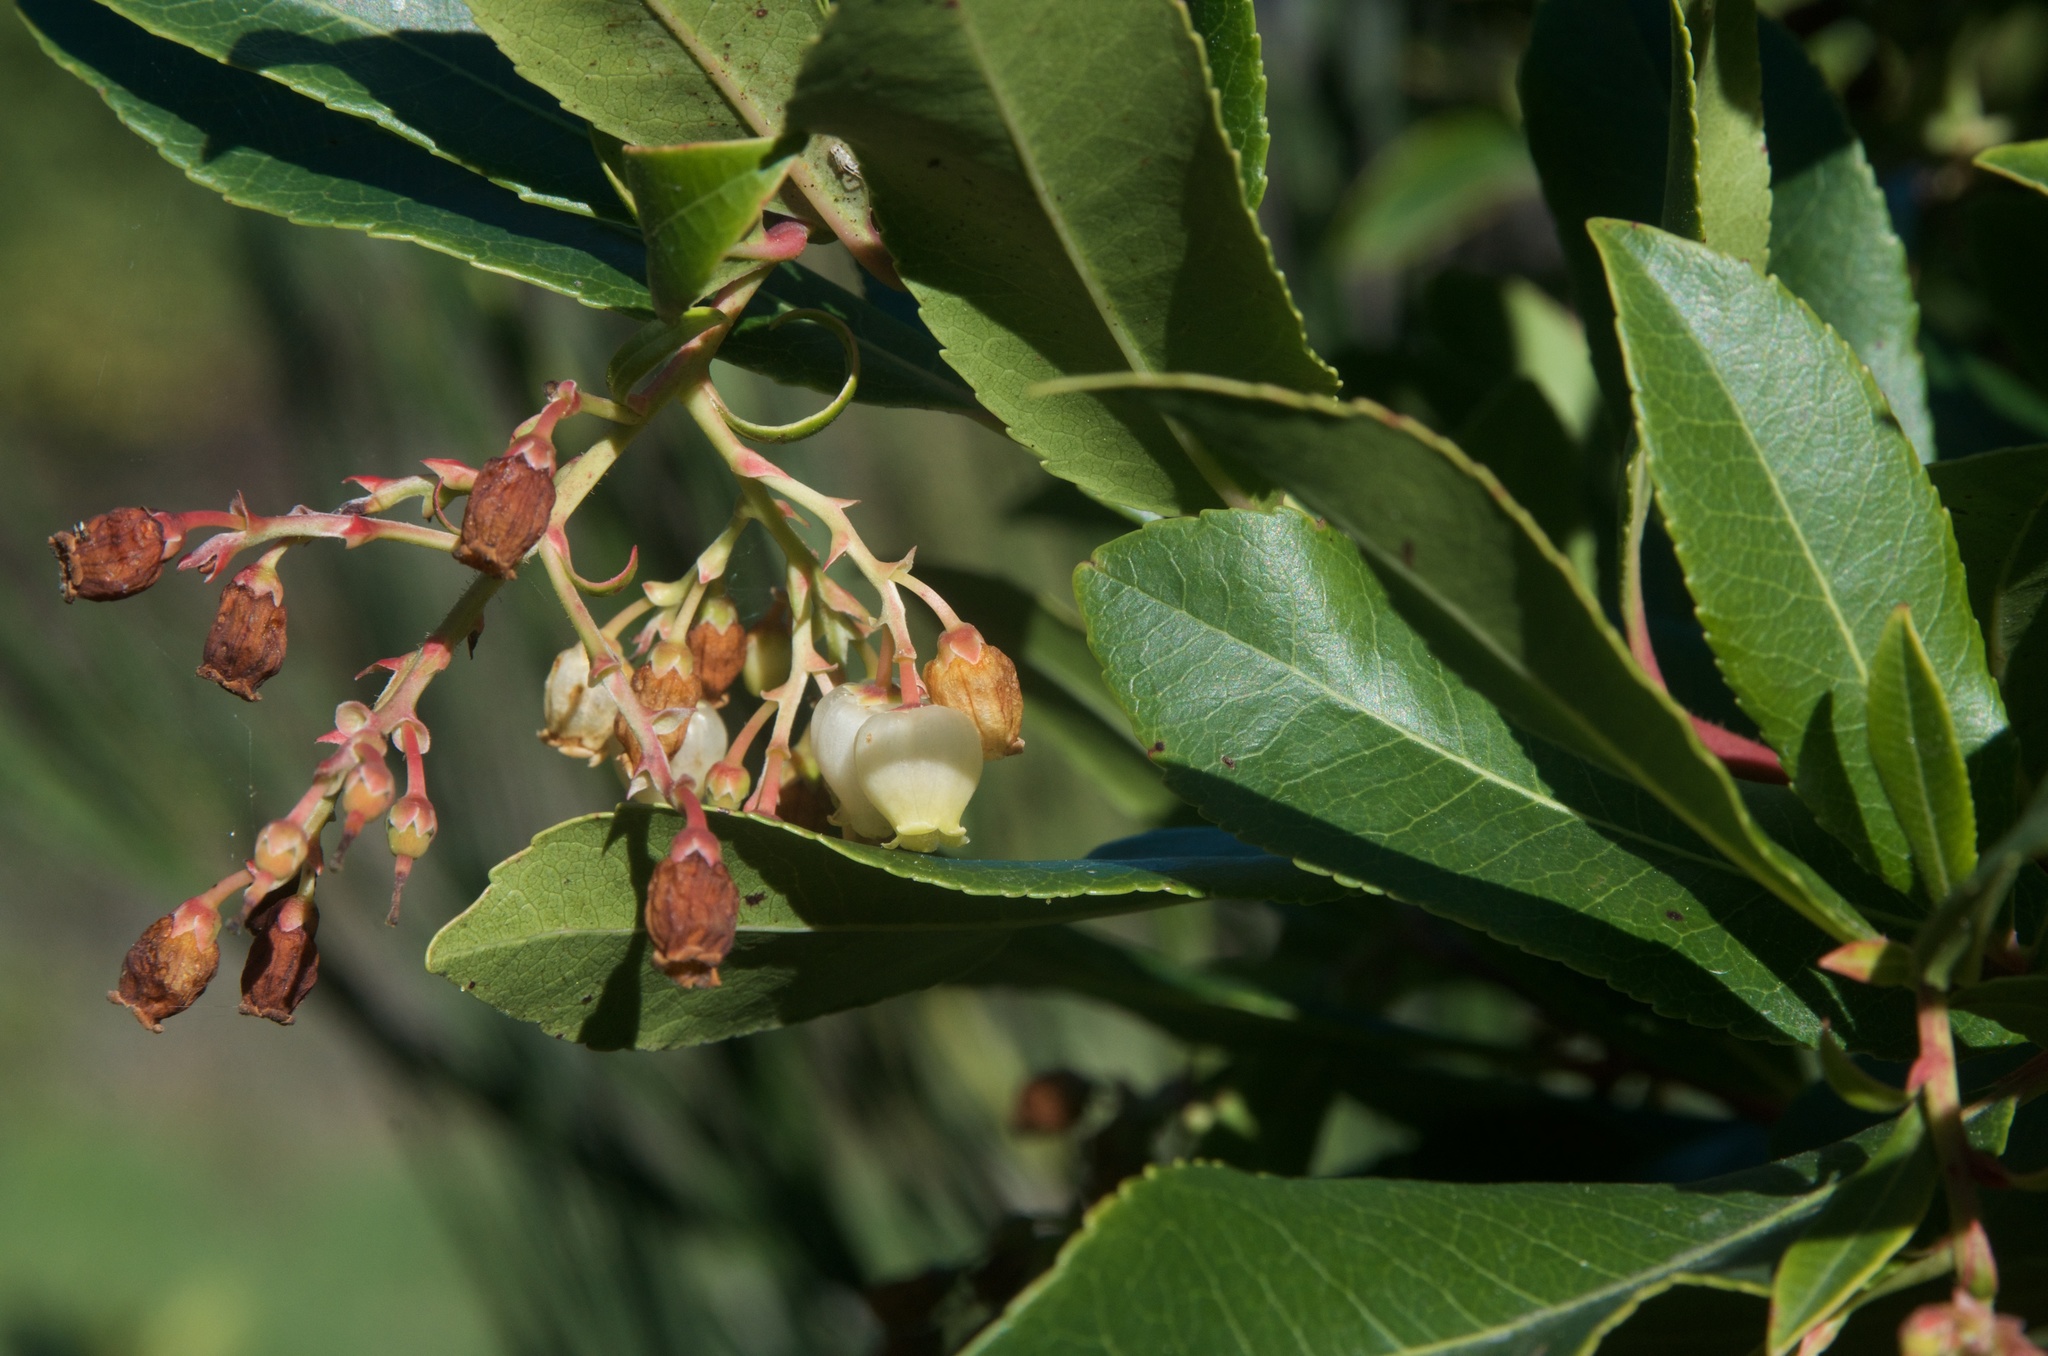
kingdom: Plantae
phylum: Tracheophyta
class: Magnoliopsida
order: Ericales
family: Ericaceae
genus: Arbutus
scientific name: Arbutus unedo
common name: Strawberry-tree
